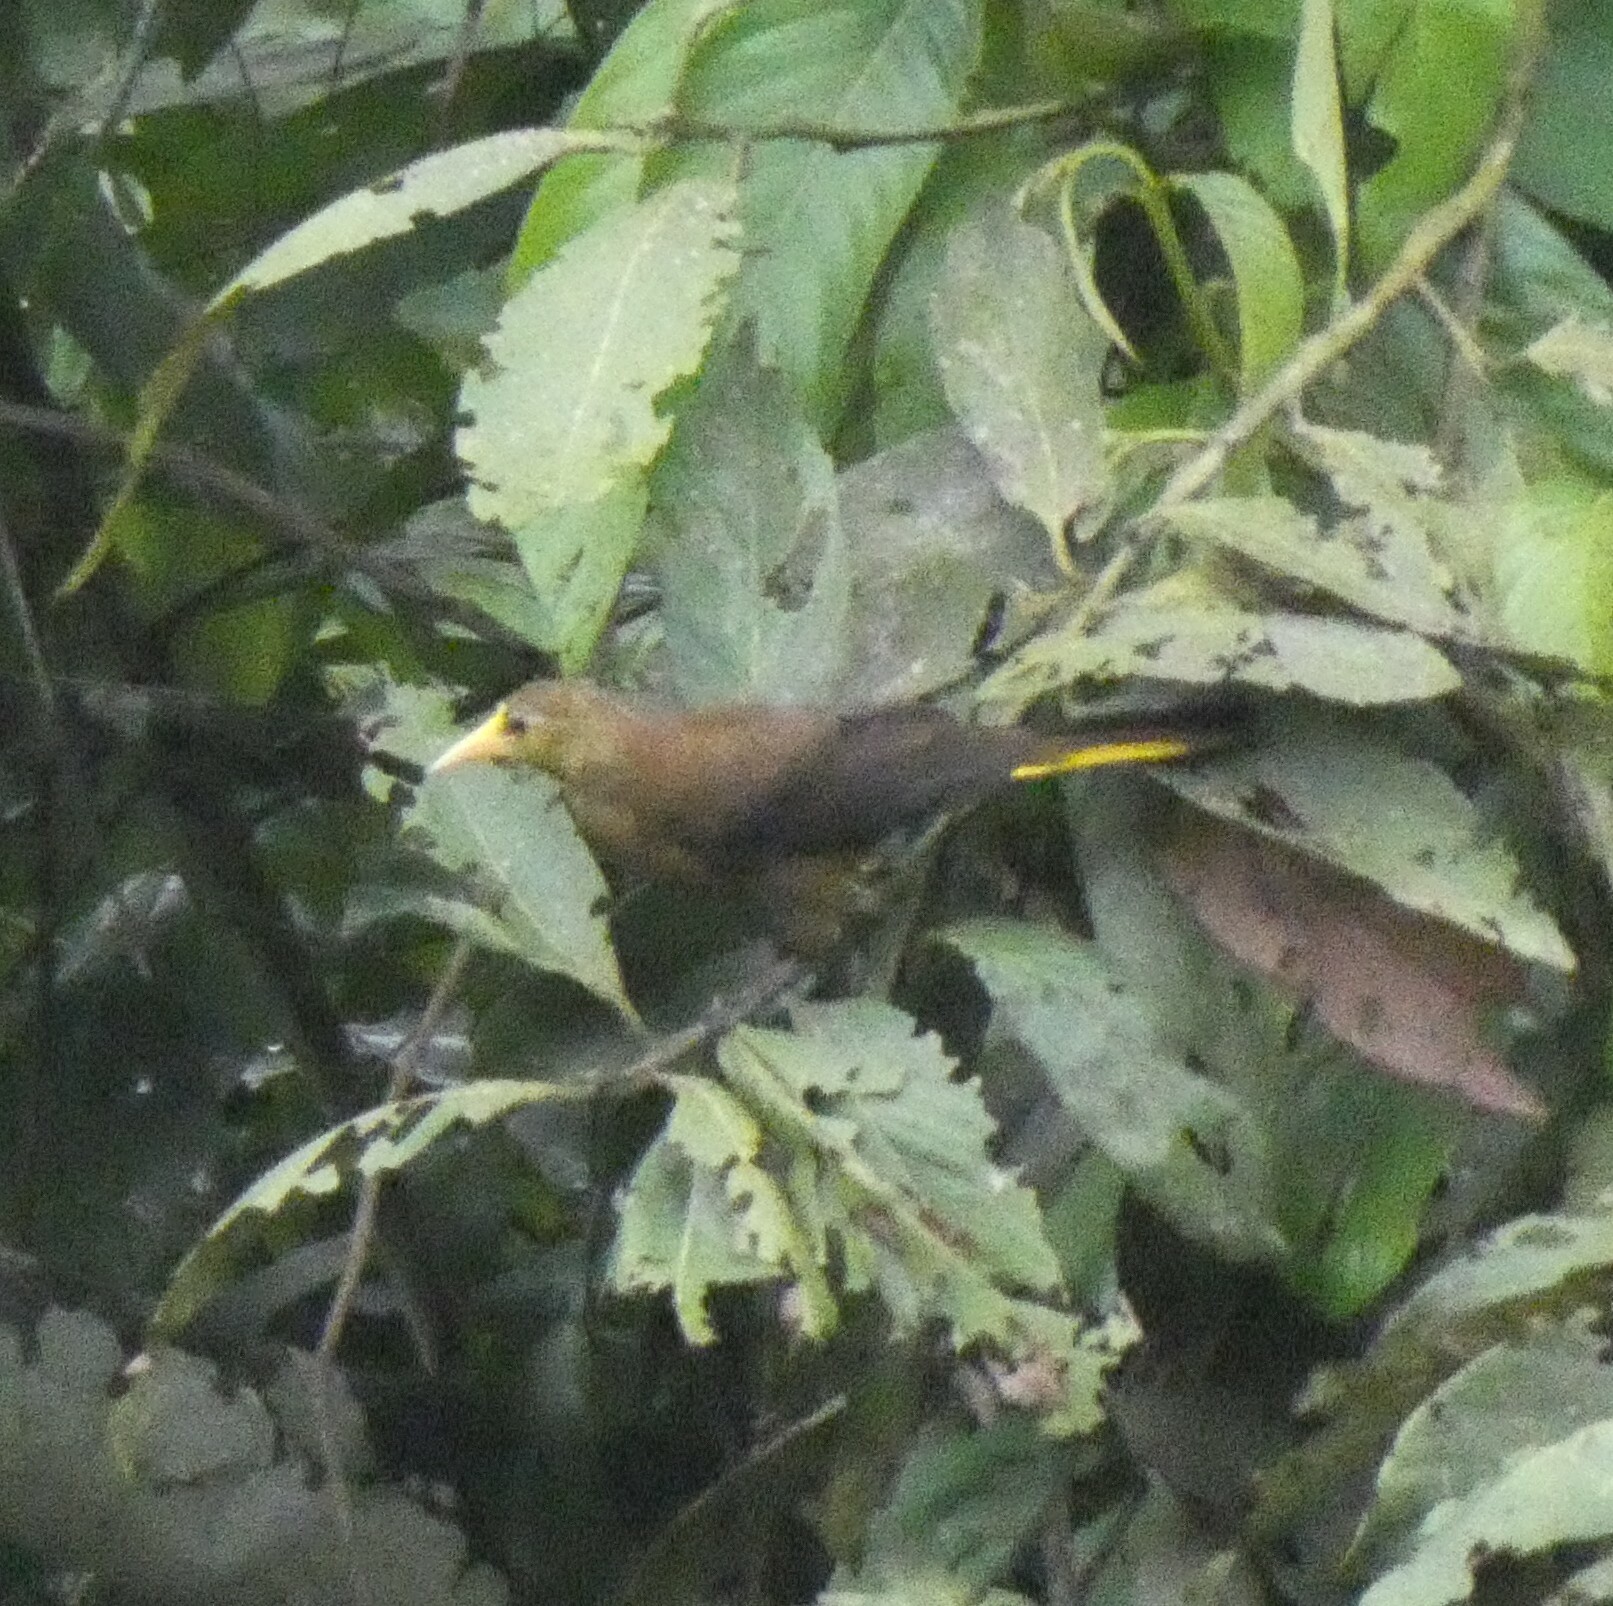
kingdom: Animalia
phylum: Chordata
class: Aves
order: Passeriformes
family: Icteridae
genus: Psarocolius
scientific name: Psarocolius angustifrons
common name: Russet-backed oropendola
